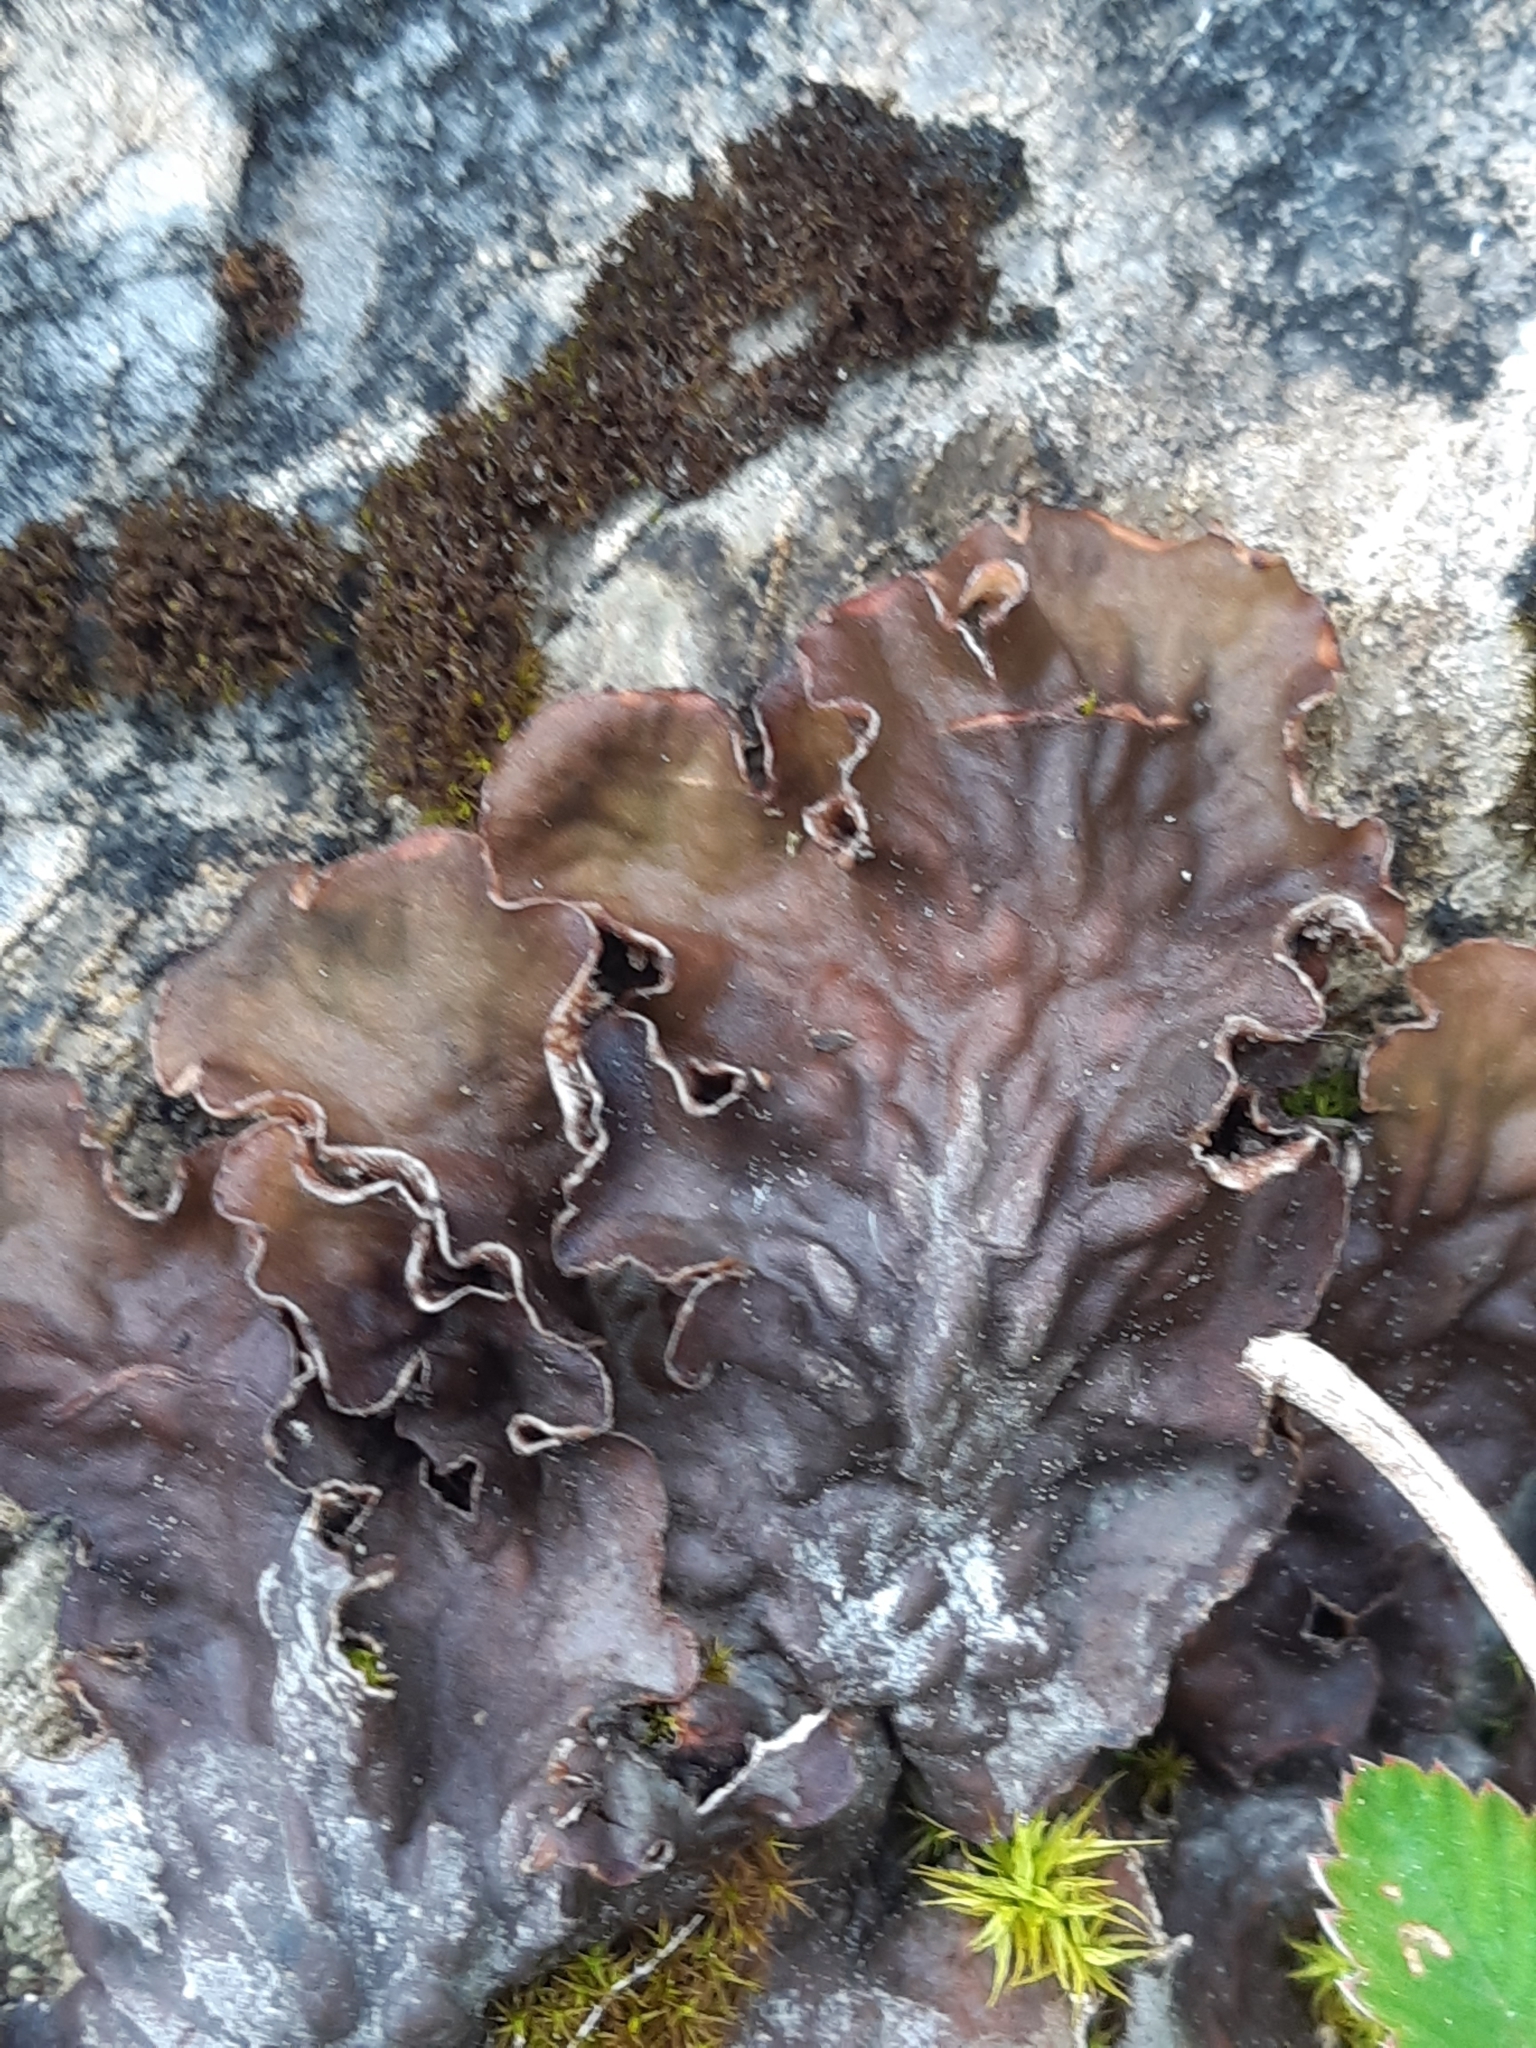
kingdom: Fungi
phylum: Ascomycota
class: Lecanoromycetes
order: Peltigerales
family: Peltigeraceae
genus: Peltigera
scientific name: Peltigera
